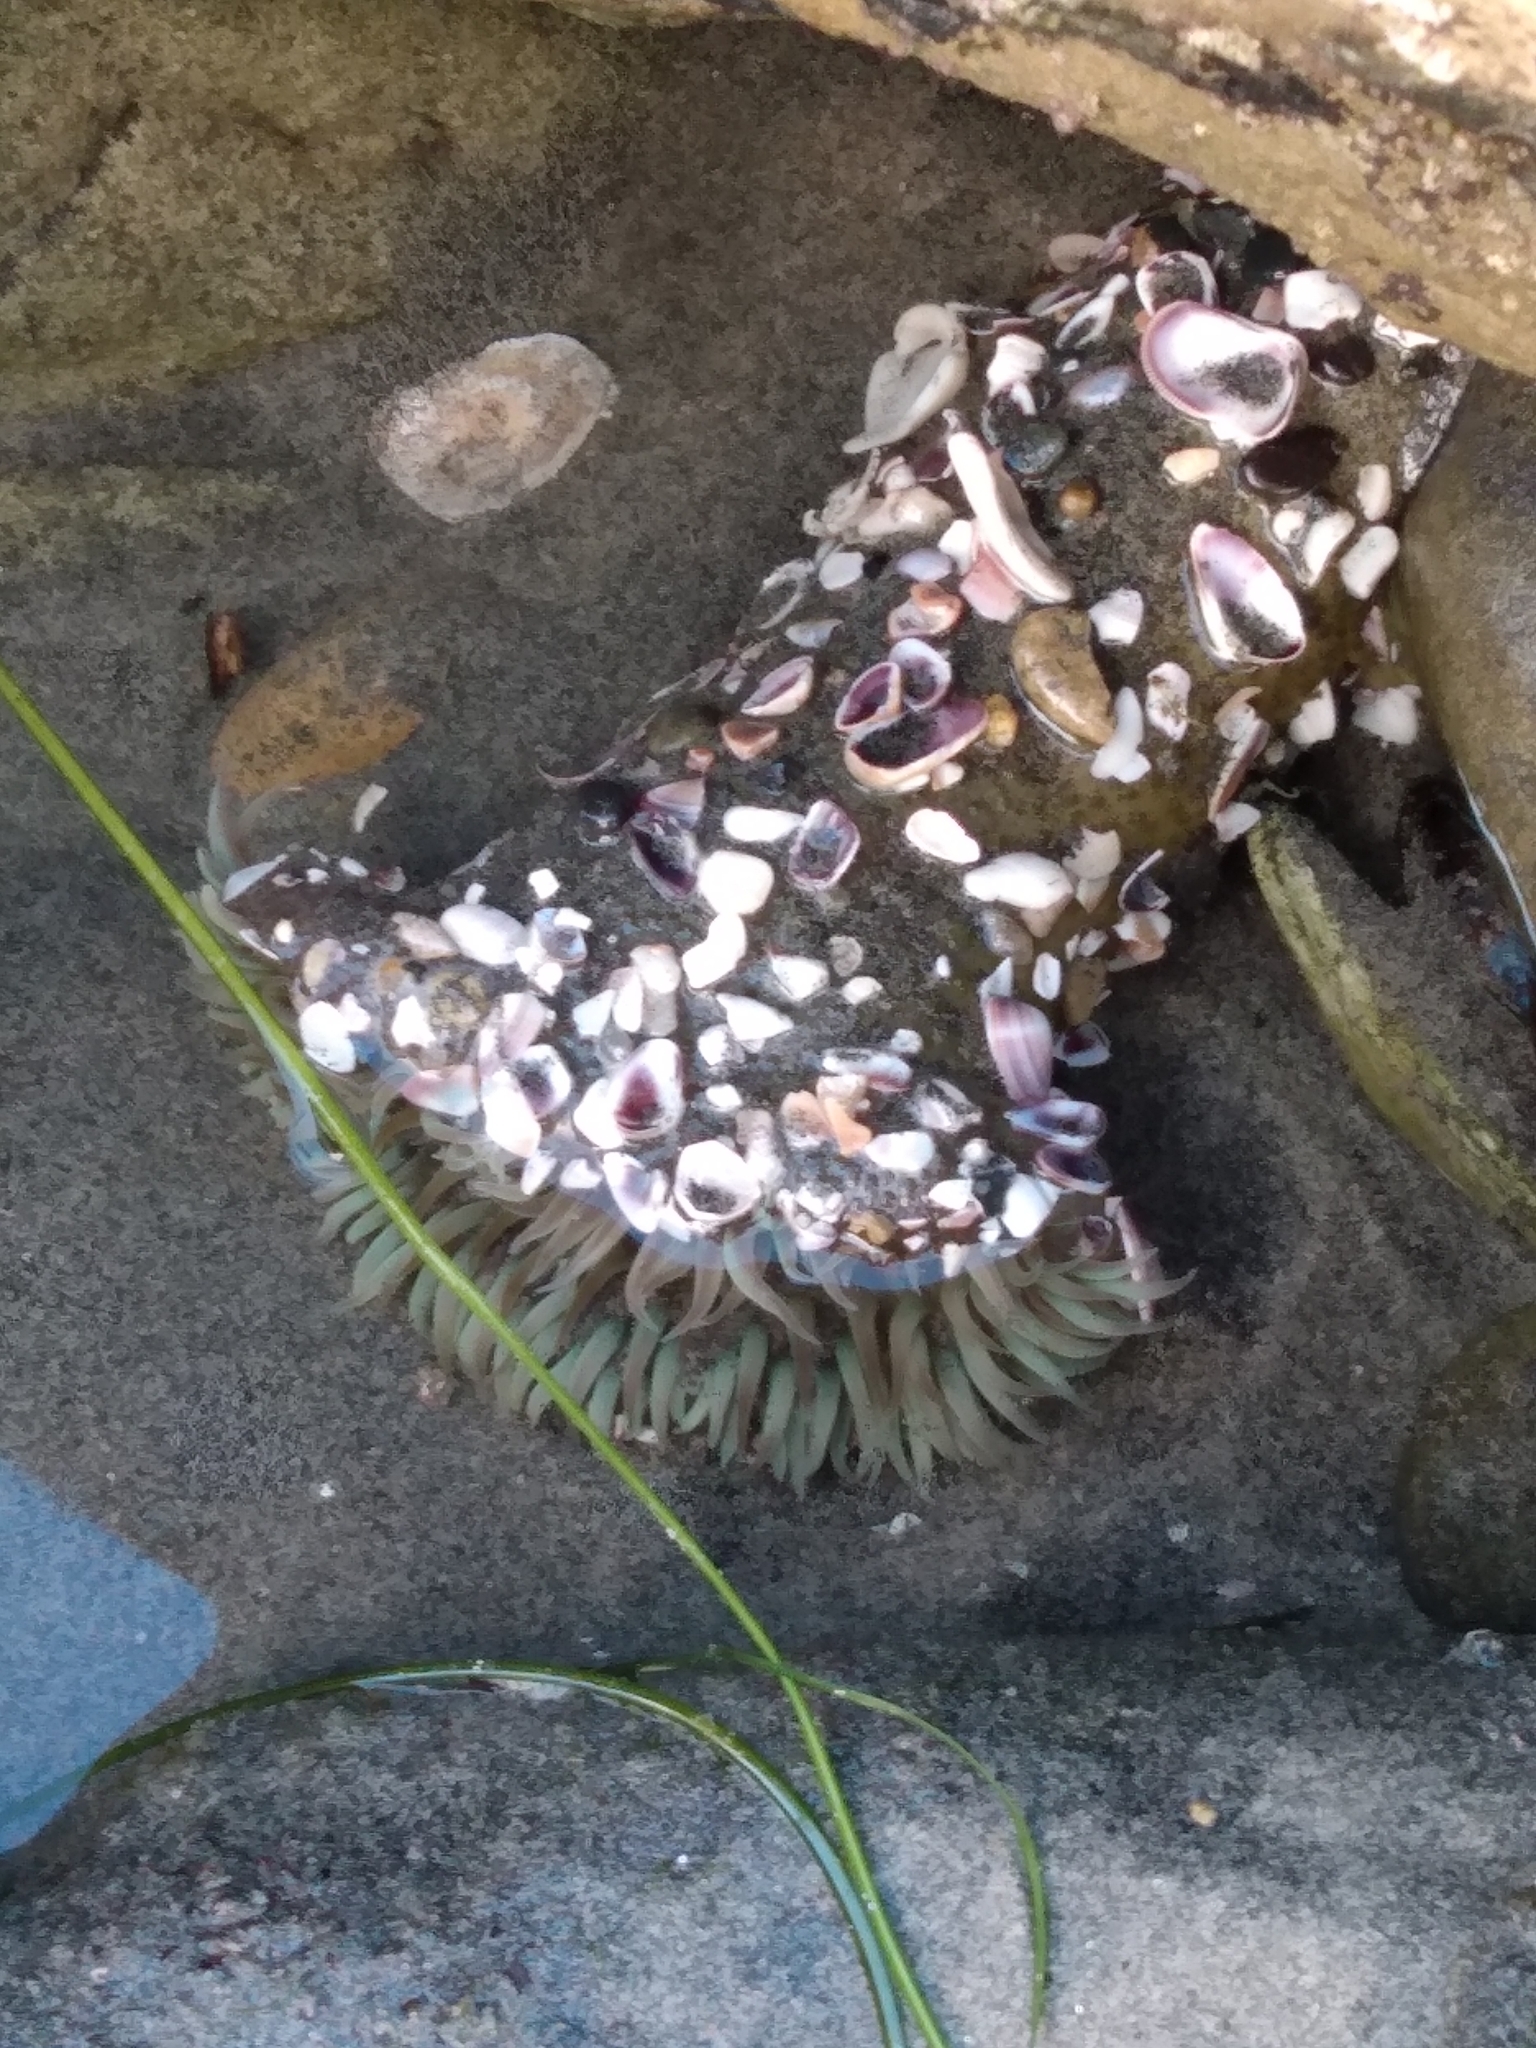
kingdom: Animalia
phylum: Cnidaria
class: Anthozoa
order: Actiniaria
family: Actiniidae
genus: Anthopleura
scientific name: Anthopleura sola
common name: Sun anemone
